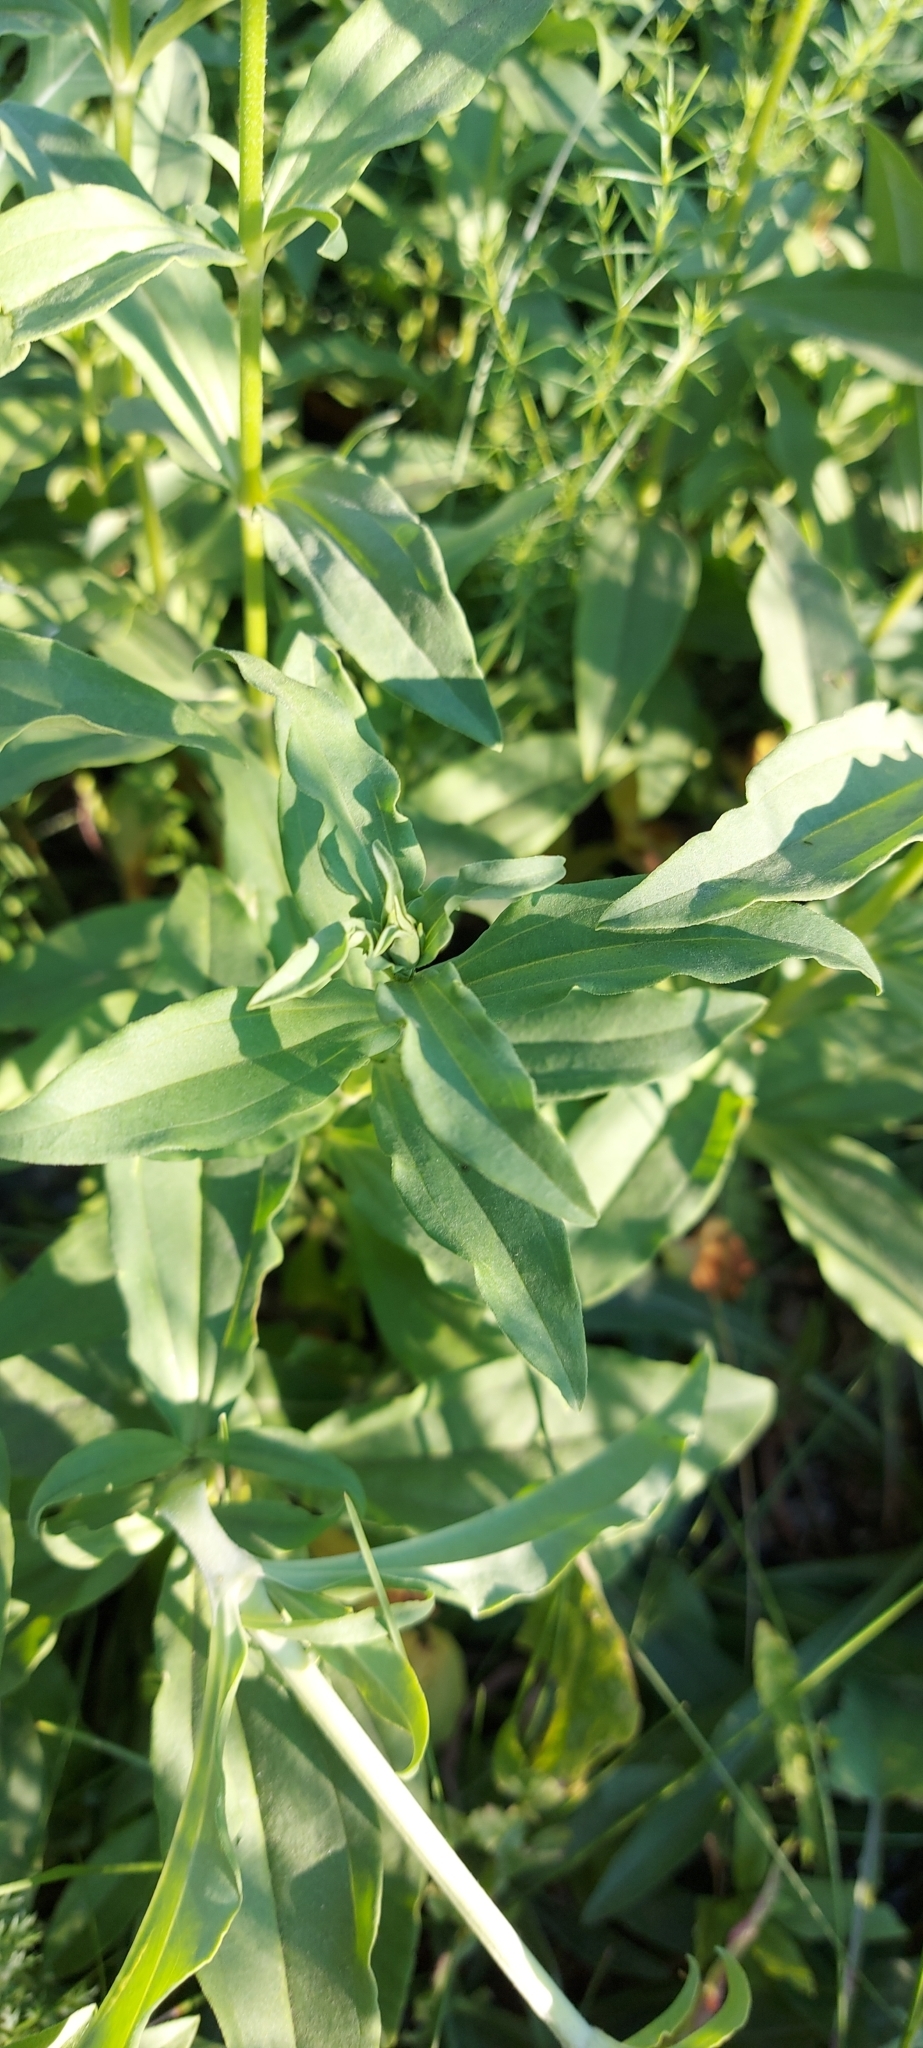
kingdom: Plantae
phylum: Tracheophyta
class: Magnoliopsida
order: Caryophyllales
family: Caryophyllaceae
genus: Saponaria
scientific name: Saponaria officinalis
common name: Soapwort
